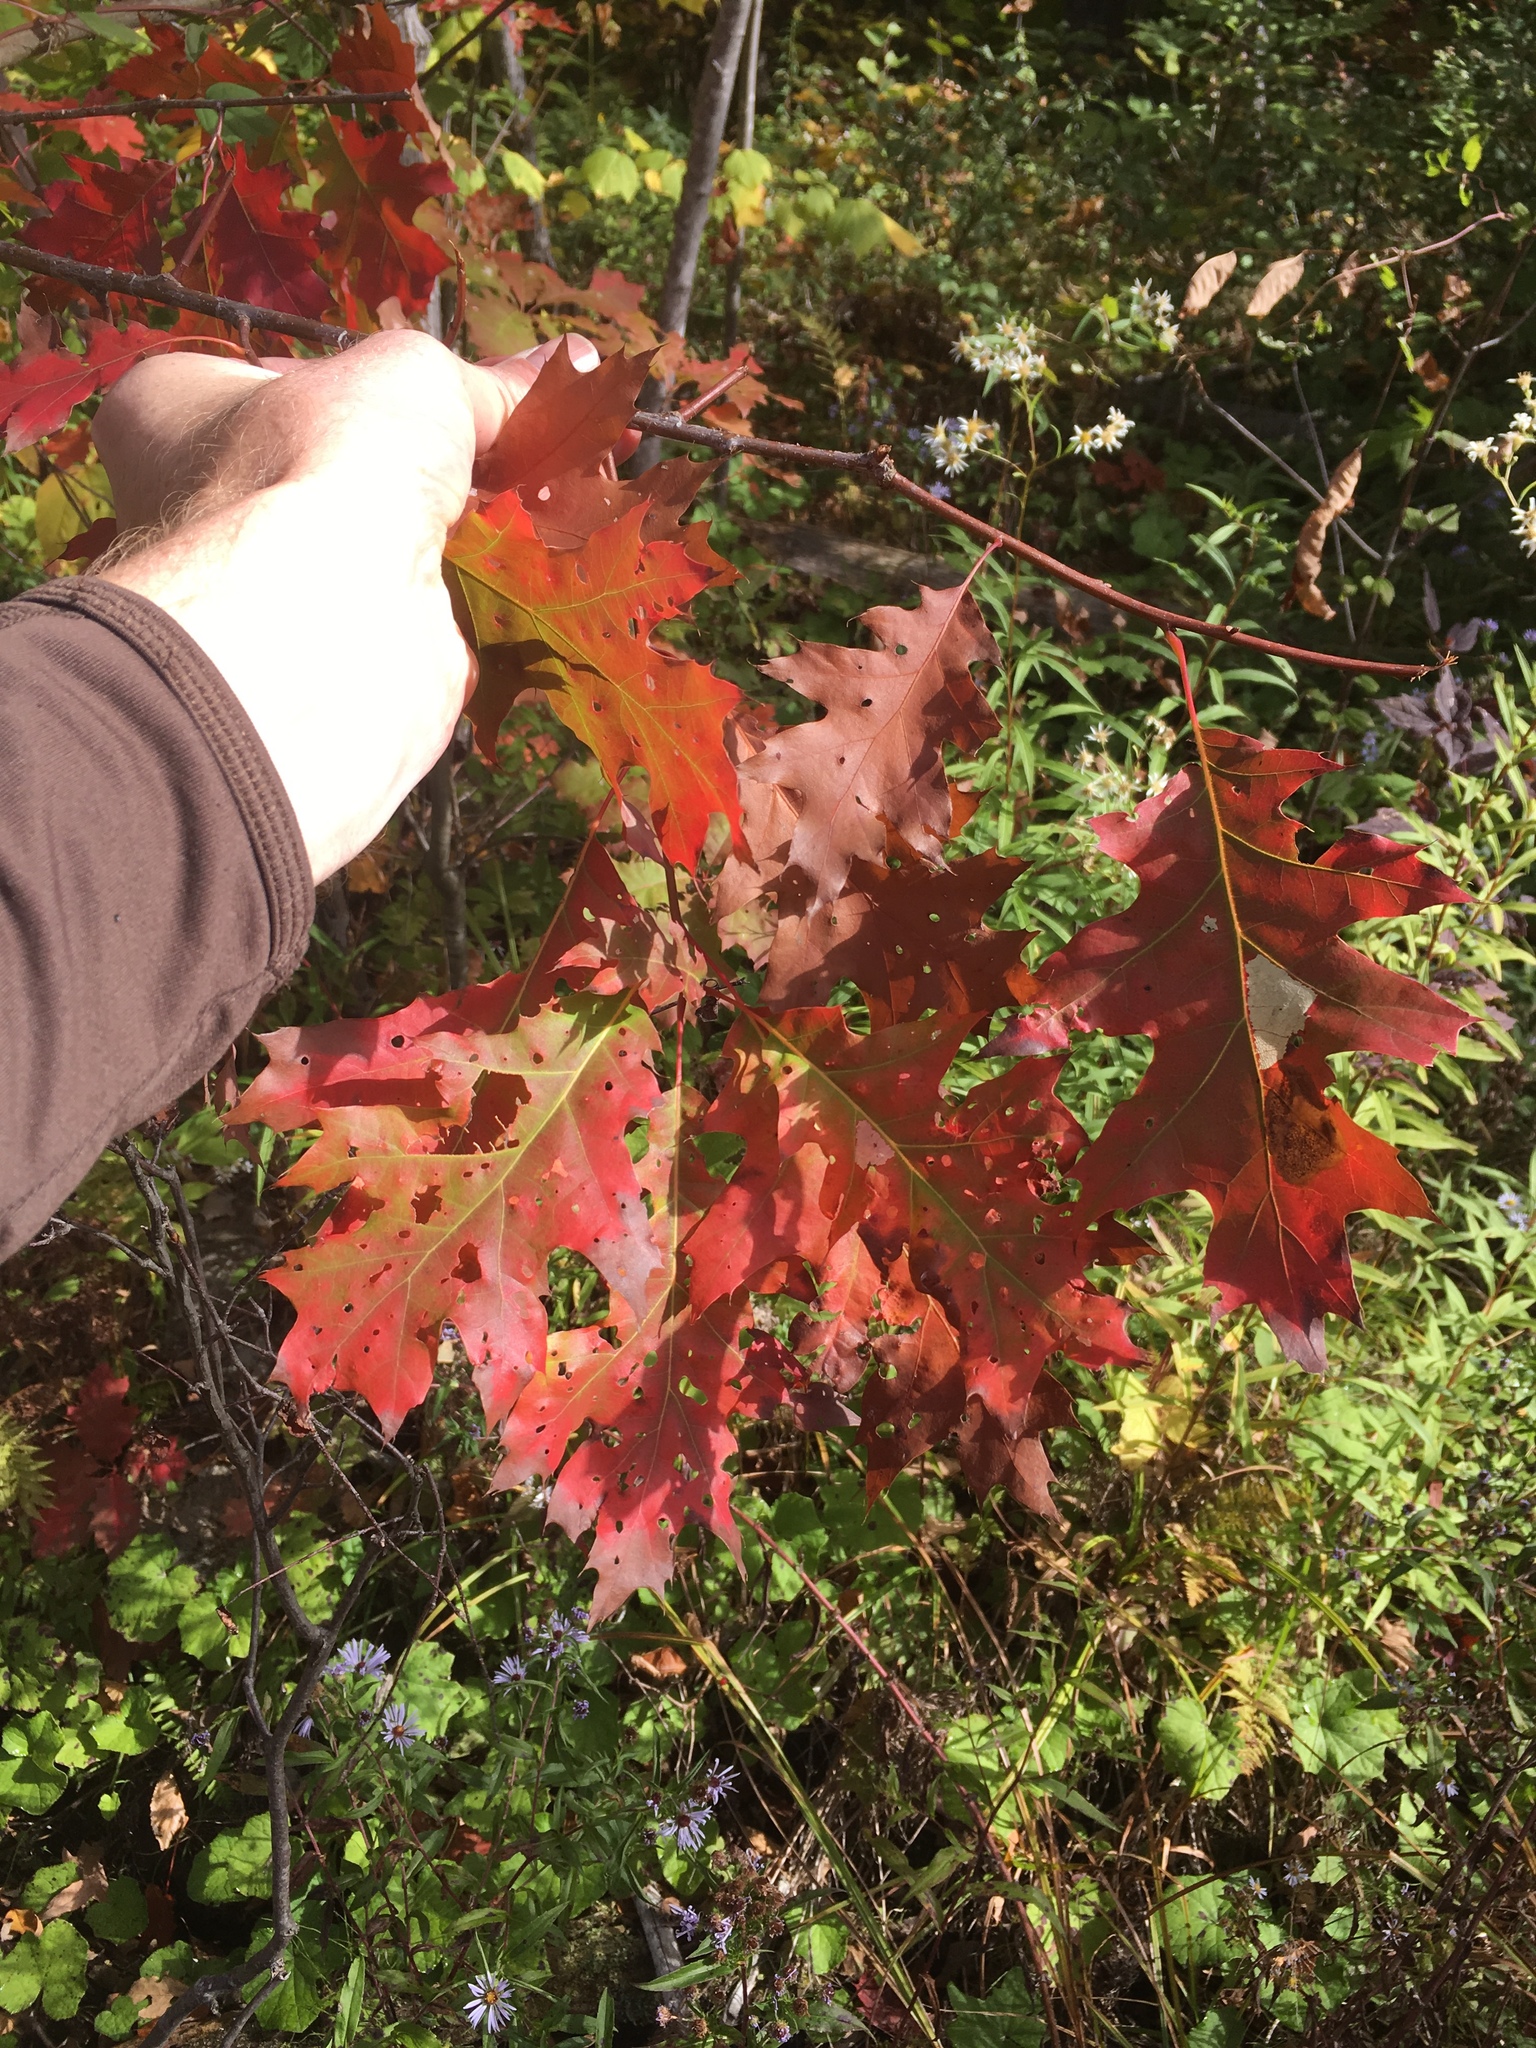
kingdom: Plantae
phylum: Tracheophyta
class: Magnoliopsida
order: Fagales
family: Fagaceae
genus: Quercus
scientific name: Quercus rubra
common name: Red oak
